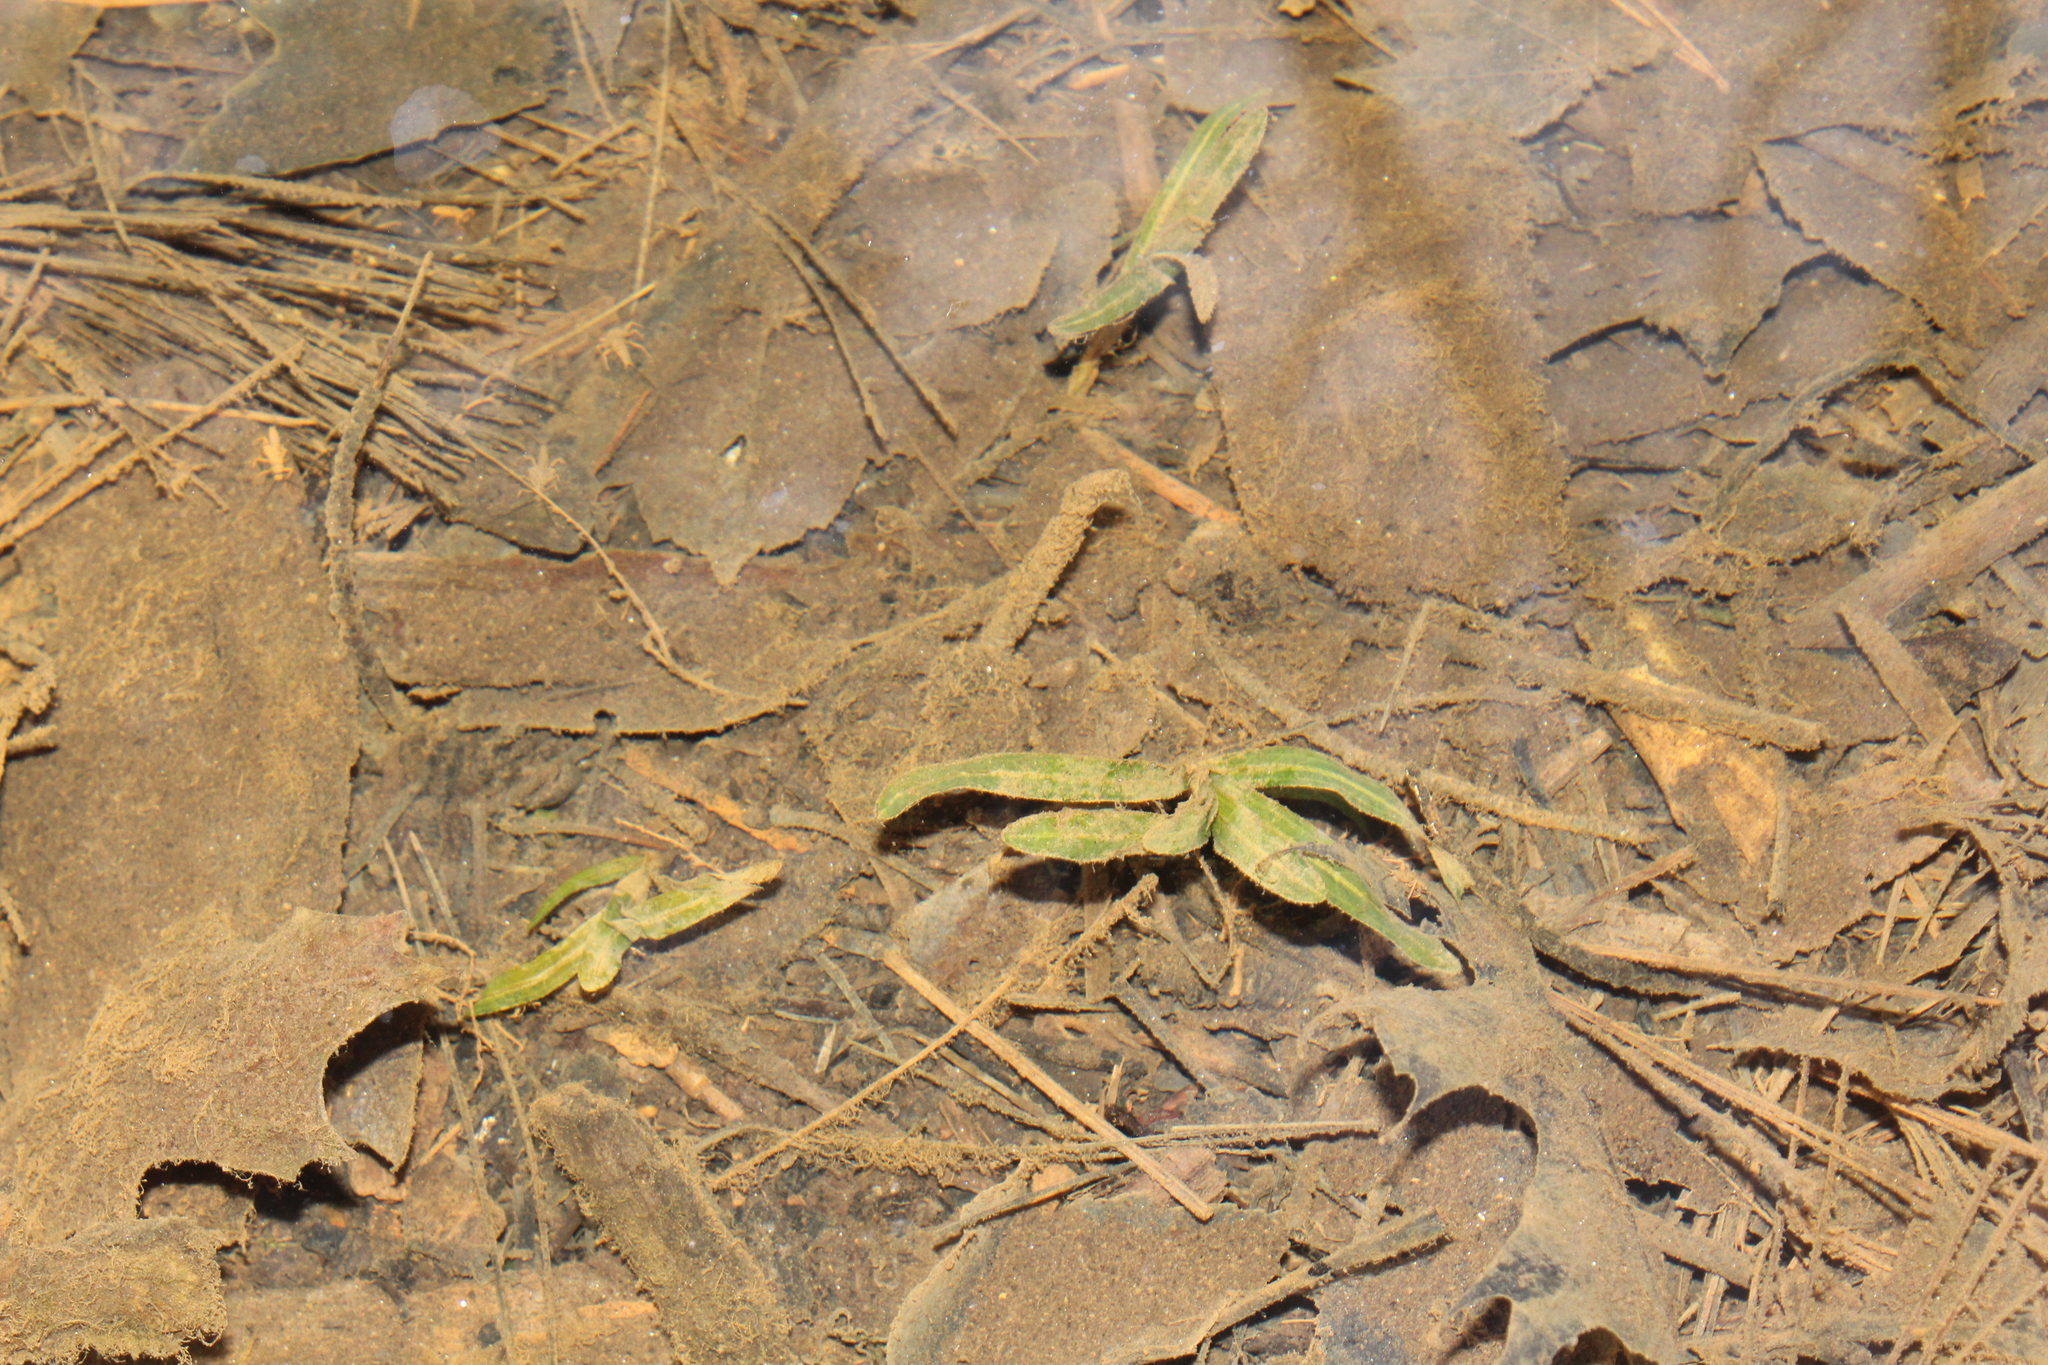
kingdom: Plantae
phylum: Tracheophyta
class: Liliopsida
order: Alismatales
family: Potamogetonaceae
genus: Potamogeton
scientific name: Potamogeton crispus
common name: Curled pondweed
